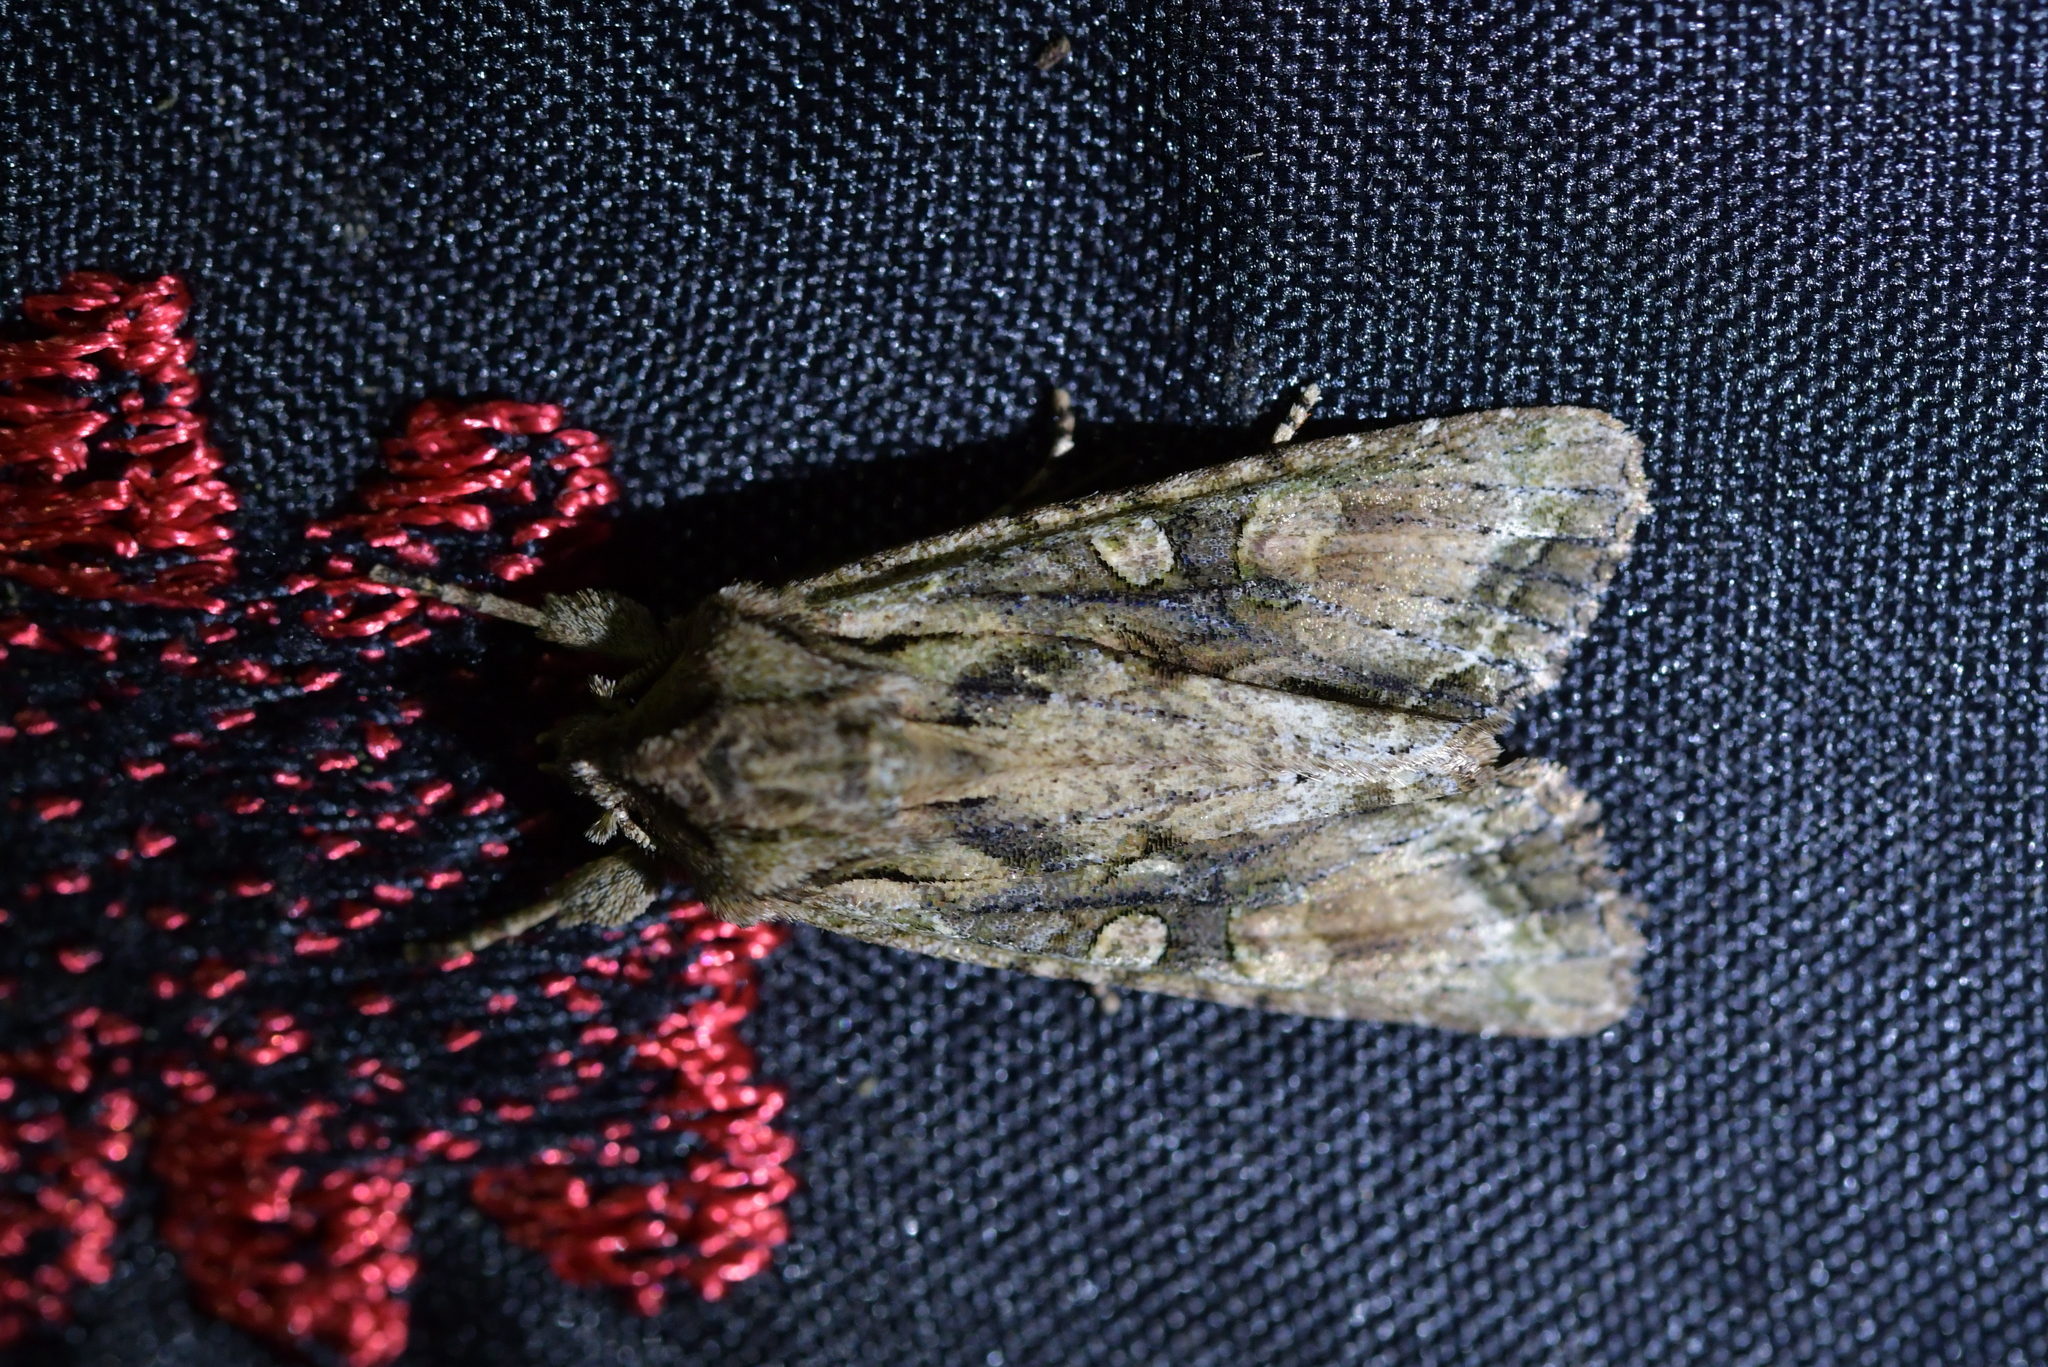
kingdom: Animalia
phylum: Arthropoda
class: Insecta
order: Lepidoptera
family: Noctuidae
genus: Ichneutica
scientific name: Ichneutica mutans
